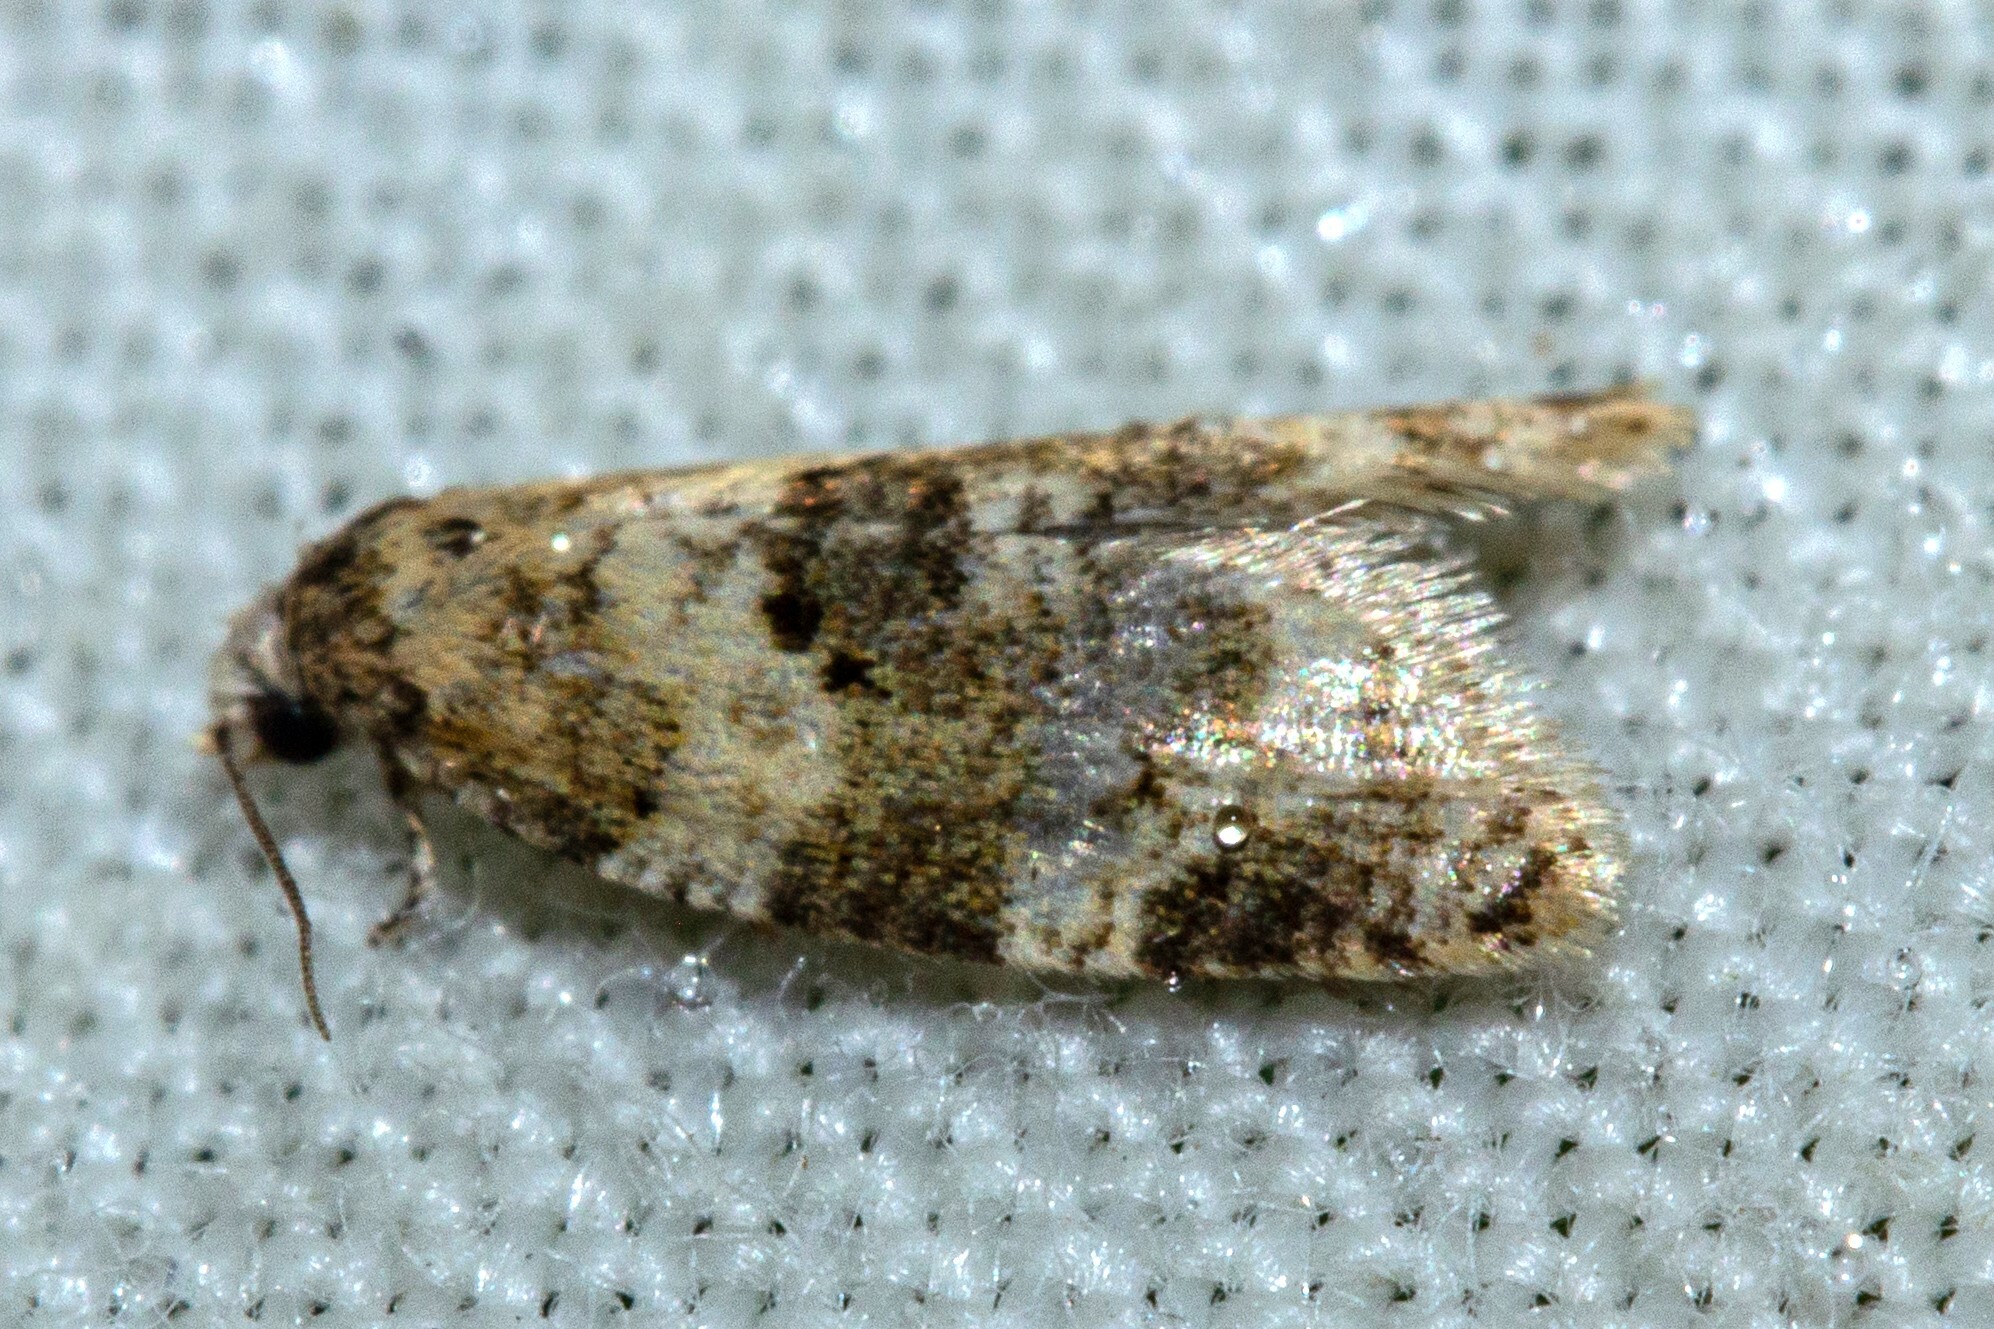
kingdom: Animalia
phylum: Arthropoda
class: Insecta
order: Lepidoptera
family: Tortricidae
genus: Dipterina
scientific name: Dipterina imbriferana
